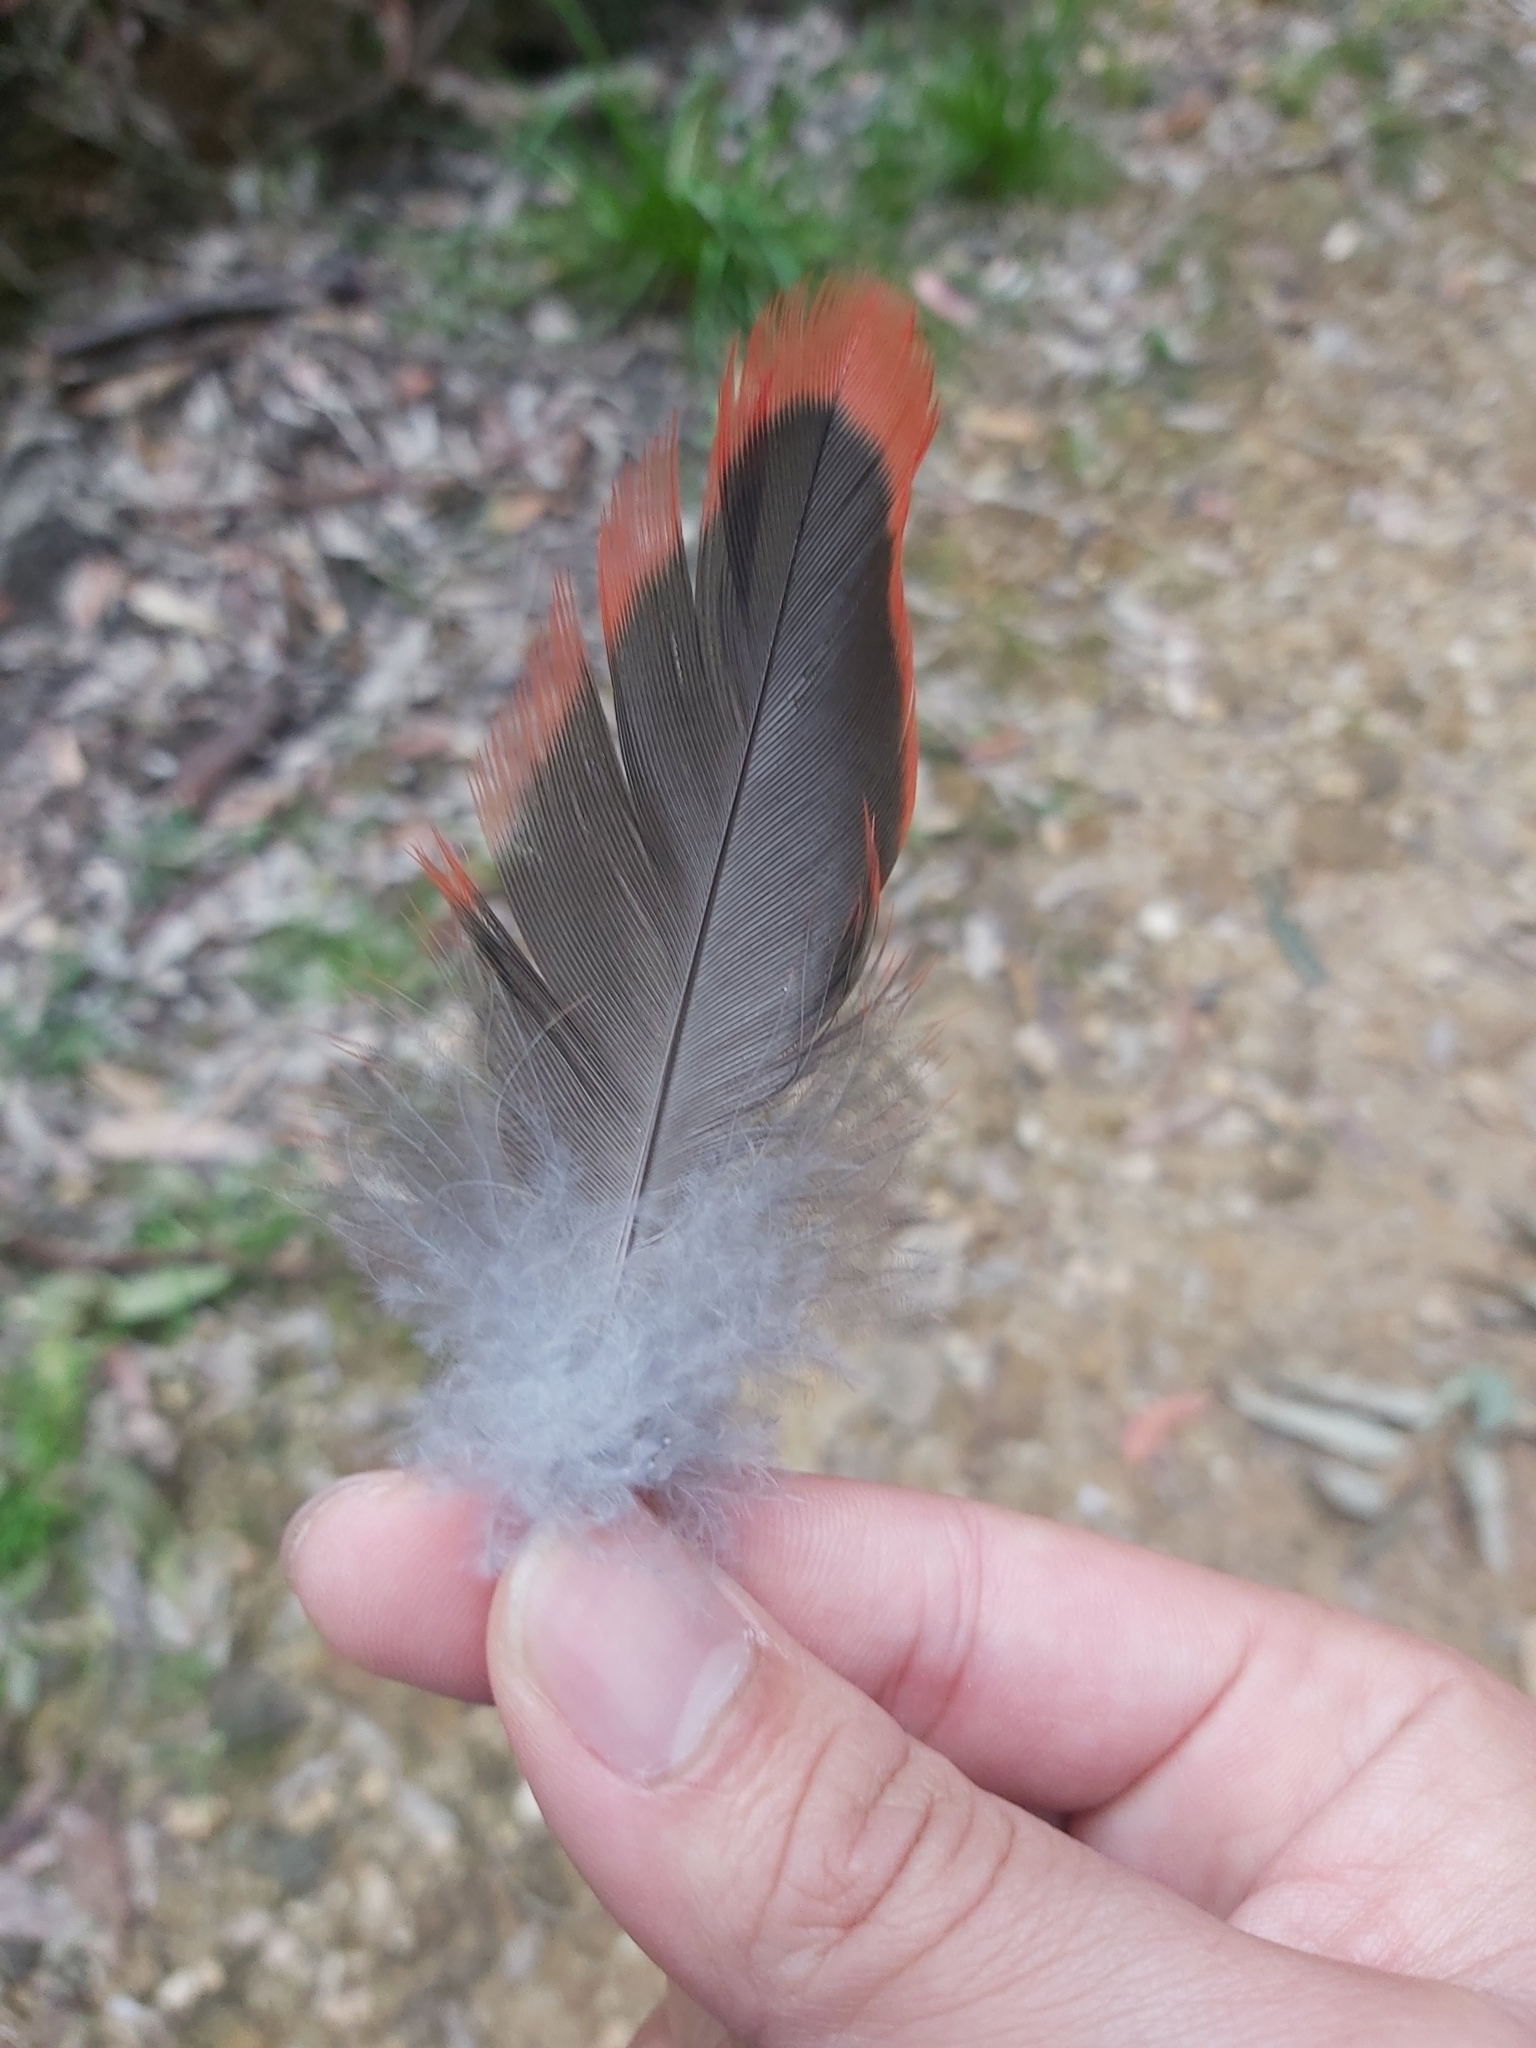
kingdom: Animalia
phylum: Chordata
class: Aves
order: Psittaciformes
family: Psittacidae
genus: Alisterus
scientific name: Alisterus scapularis
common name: Australian king parrot
